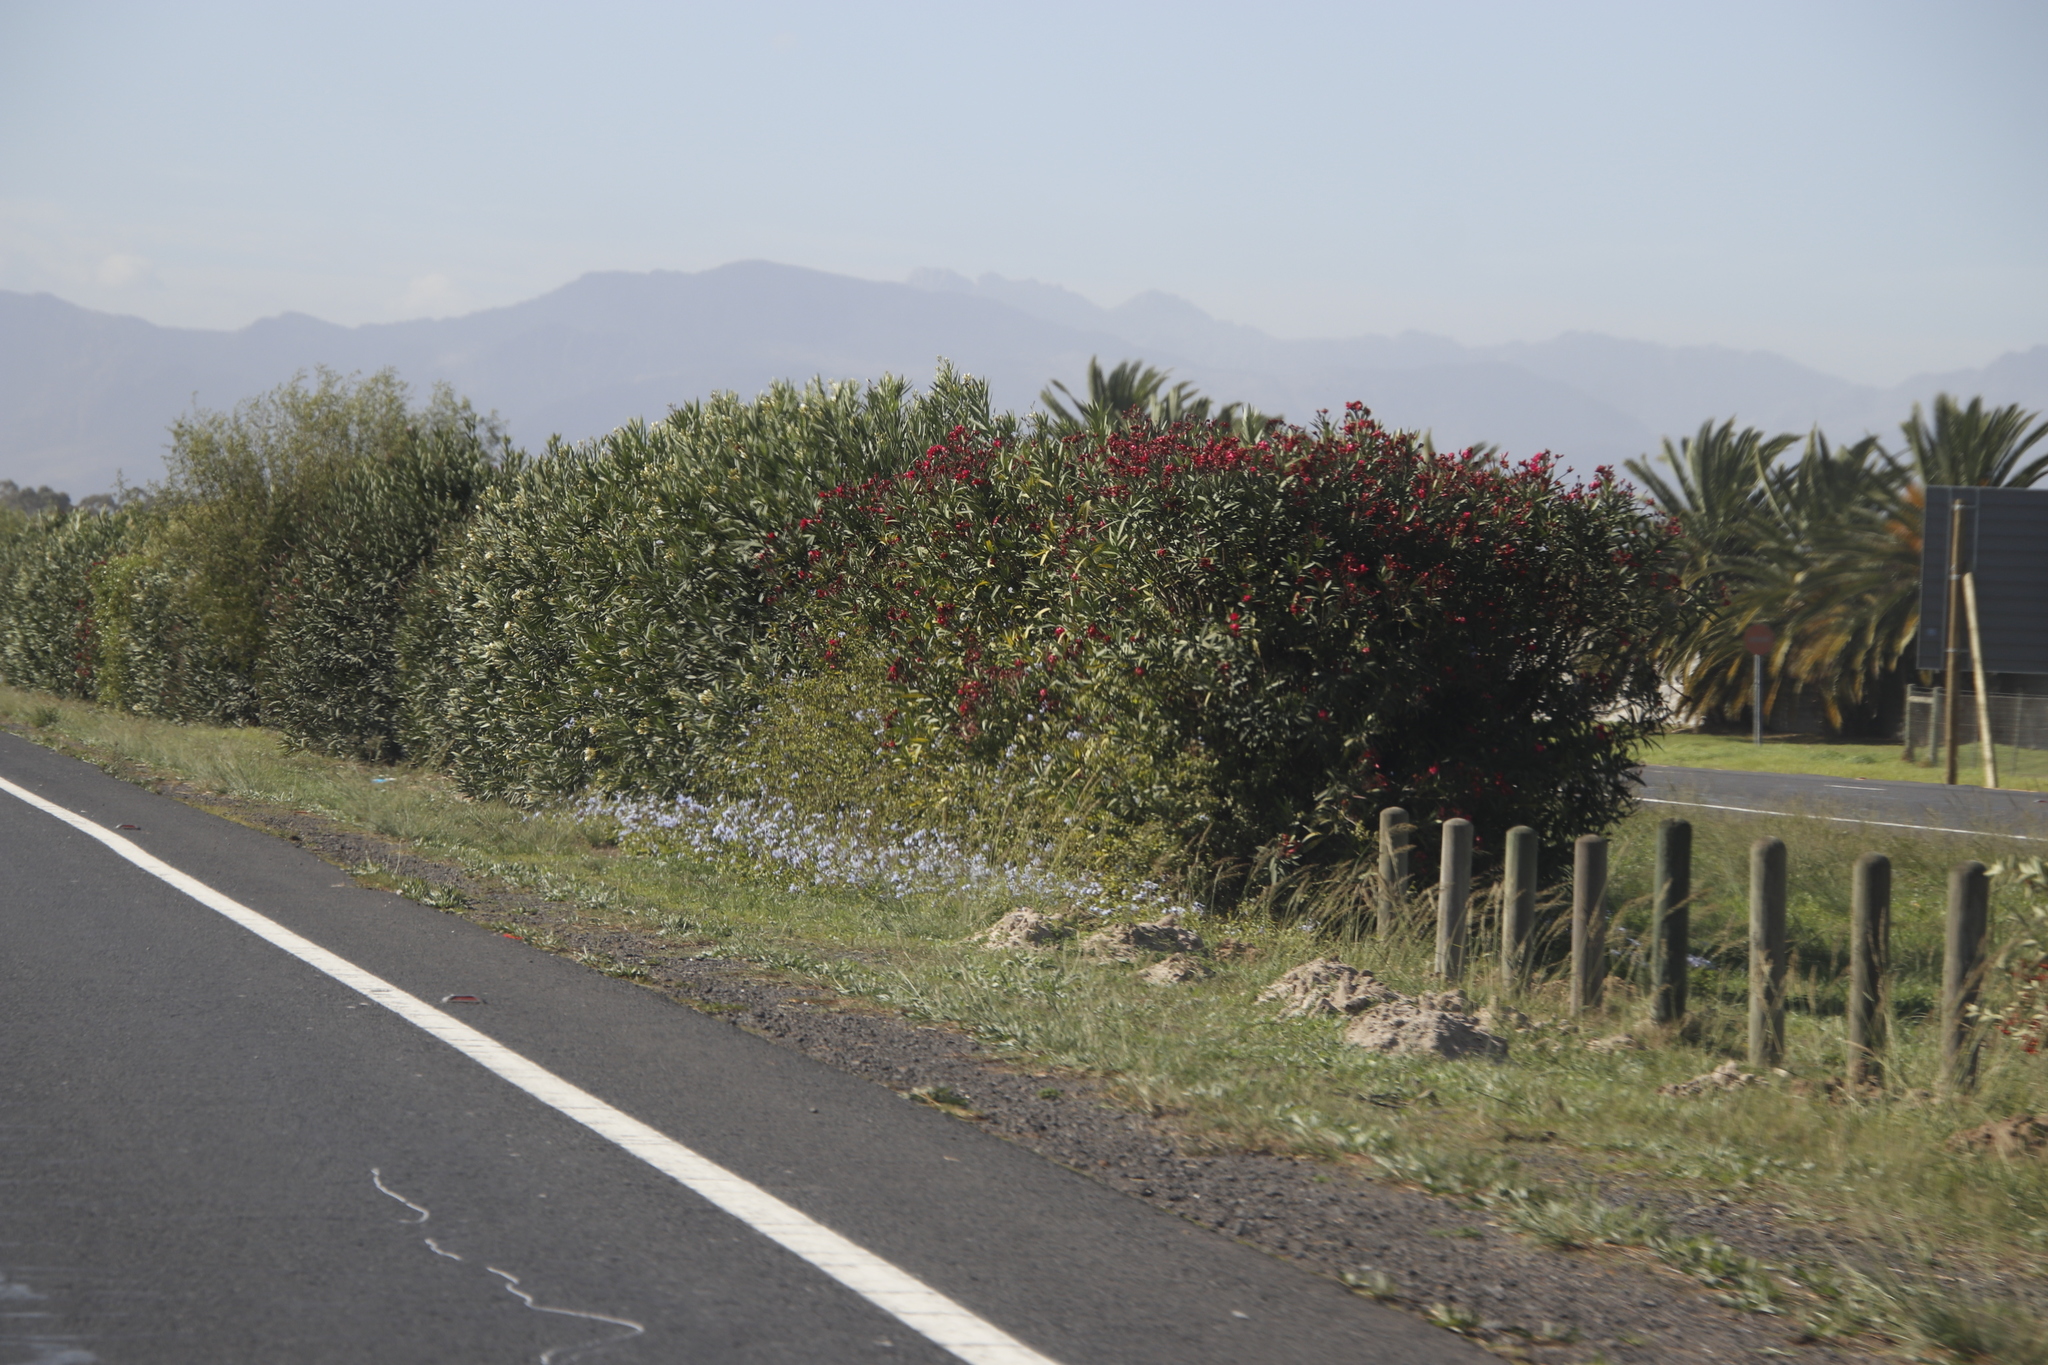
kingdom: Plantae
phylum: Tracheophyta
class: Magnoliopsida
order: Caryophyllales
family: Plumbaginaceae
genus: Plumbago
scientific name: Plumbago auriculata
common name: Cape leadwort
